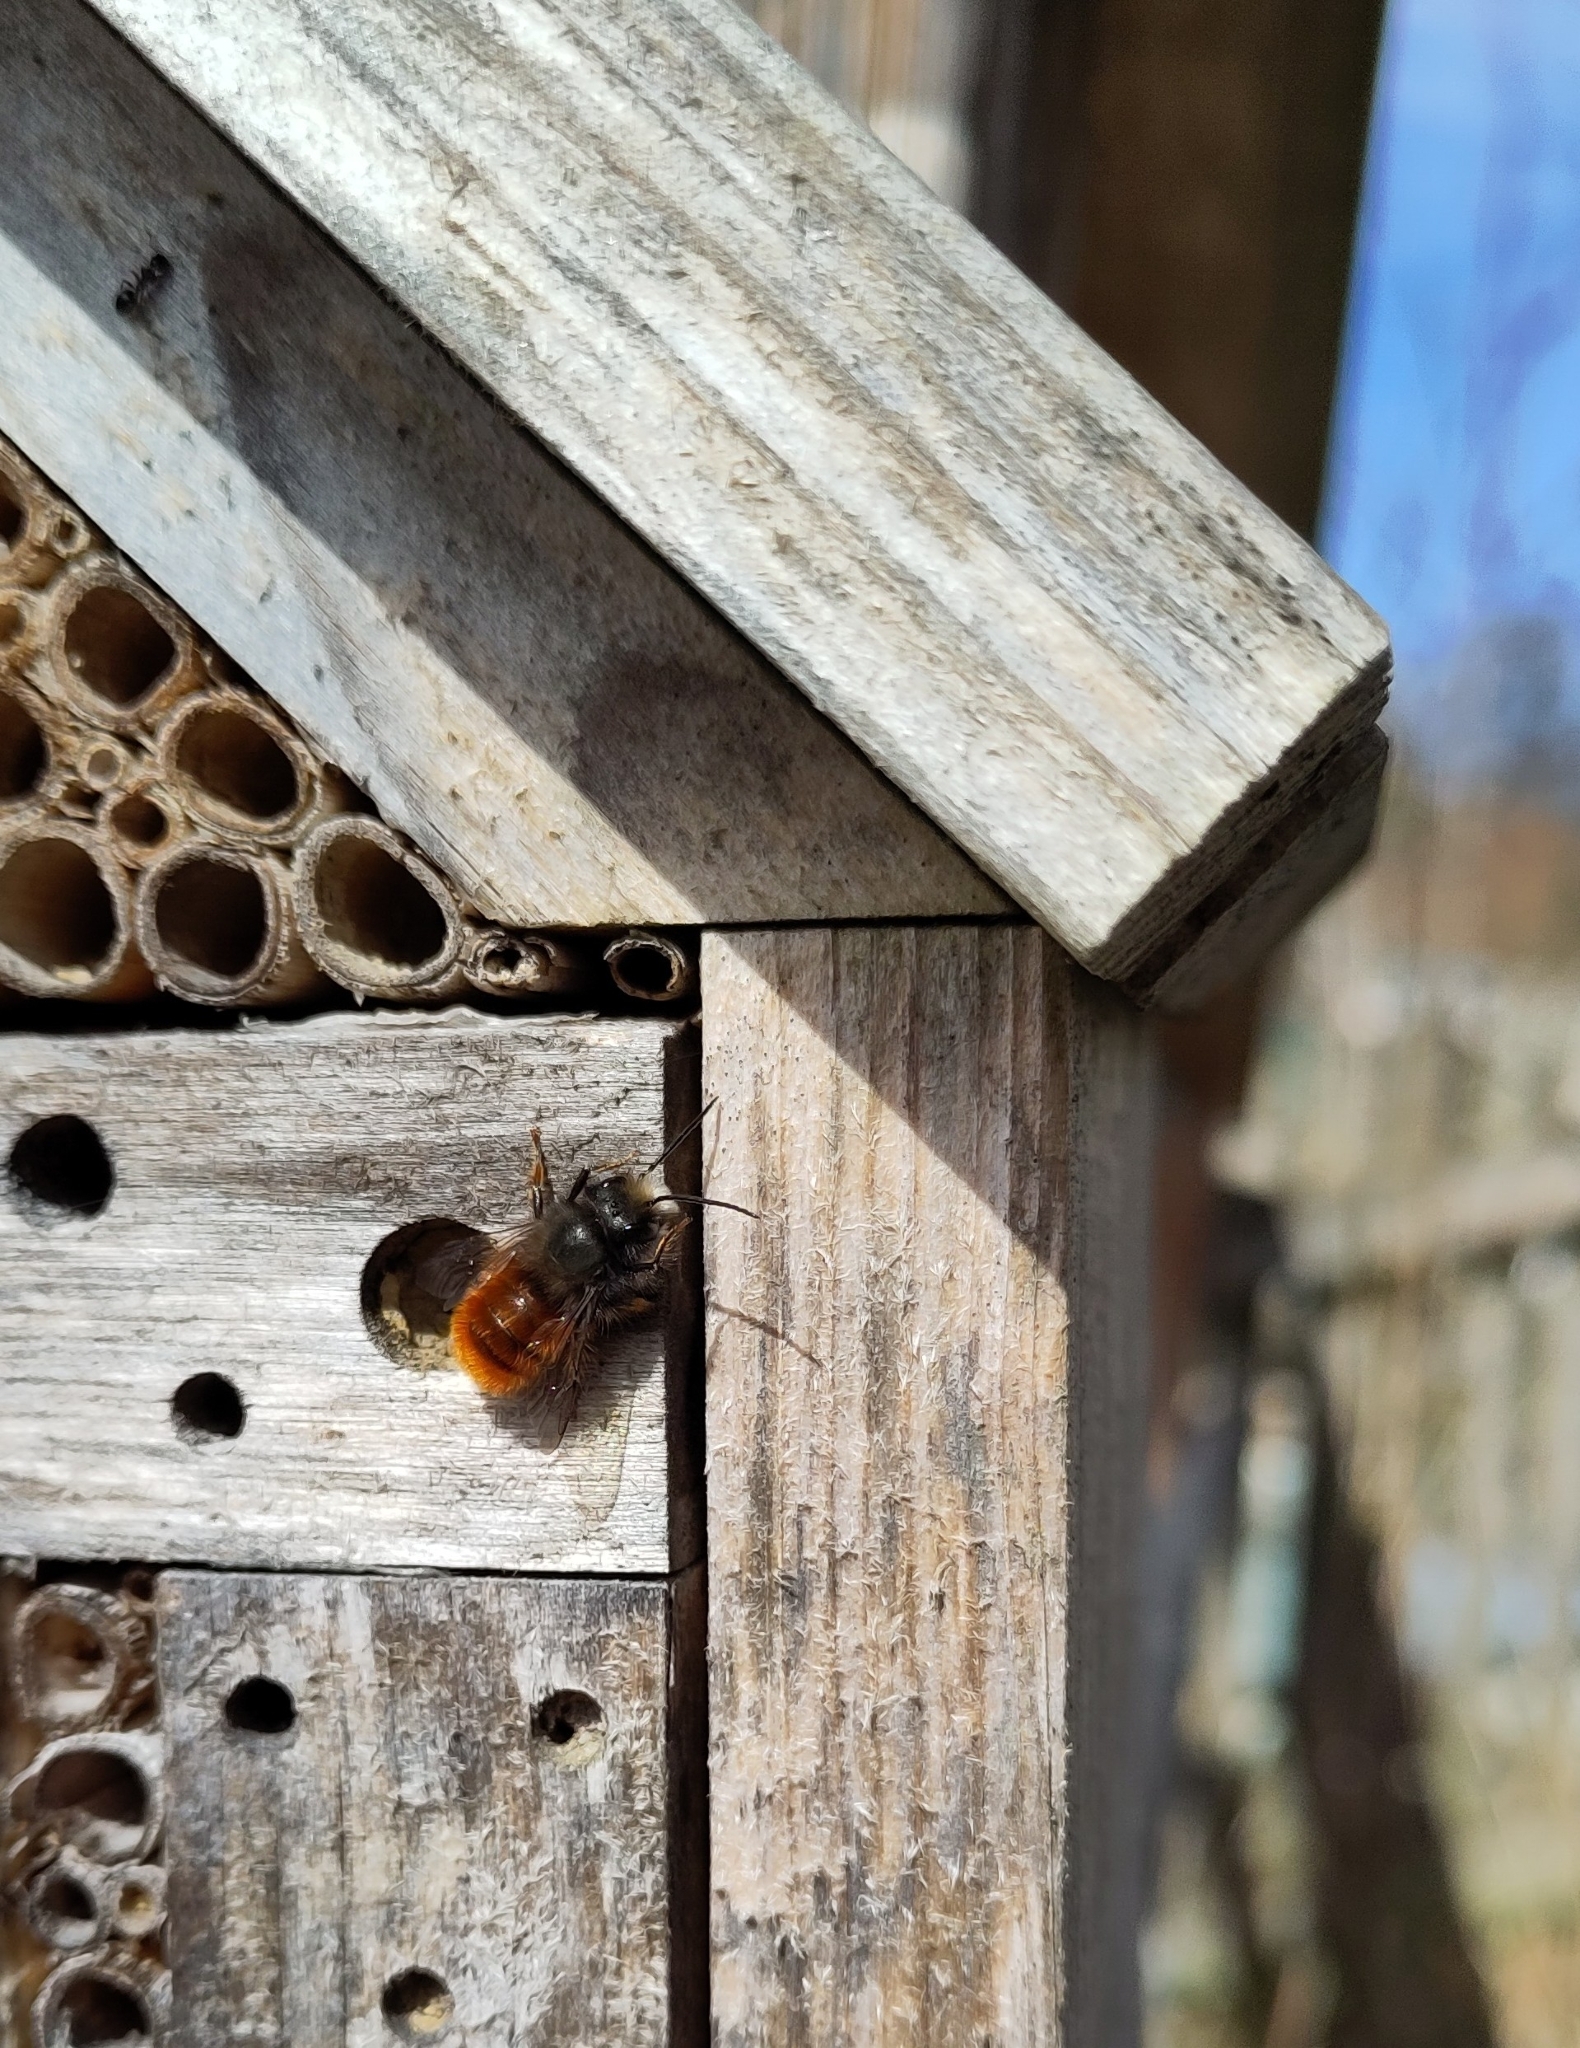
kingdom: Animalia
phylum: Arthropoda
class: Insecta
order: Hymenoptera
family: Megachilidae
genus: Osmia
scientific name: Osmia cornuta
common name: Mason bee
